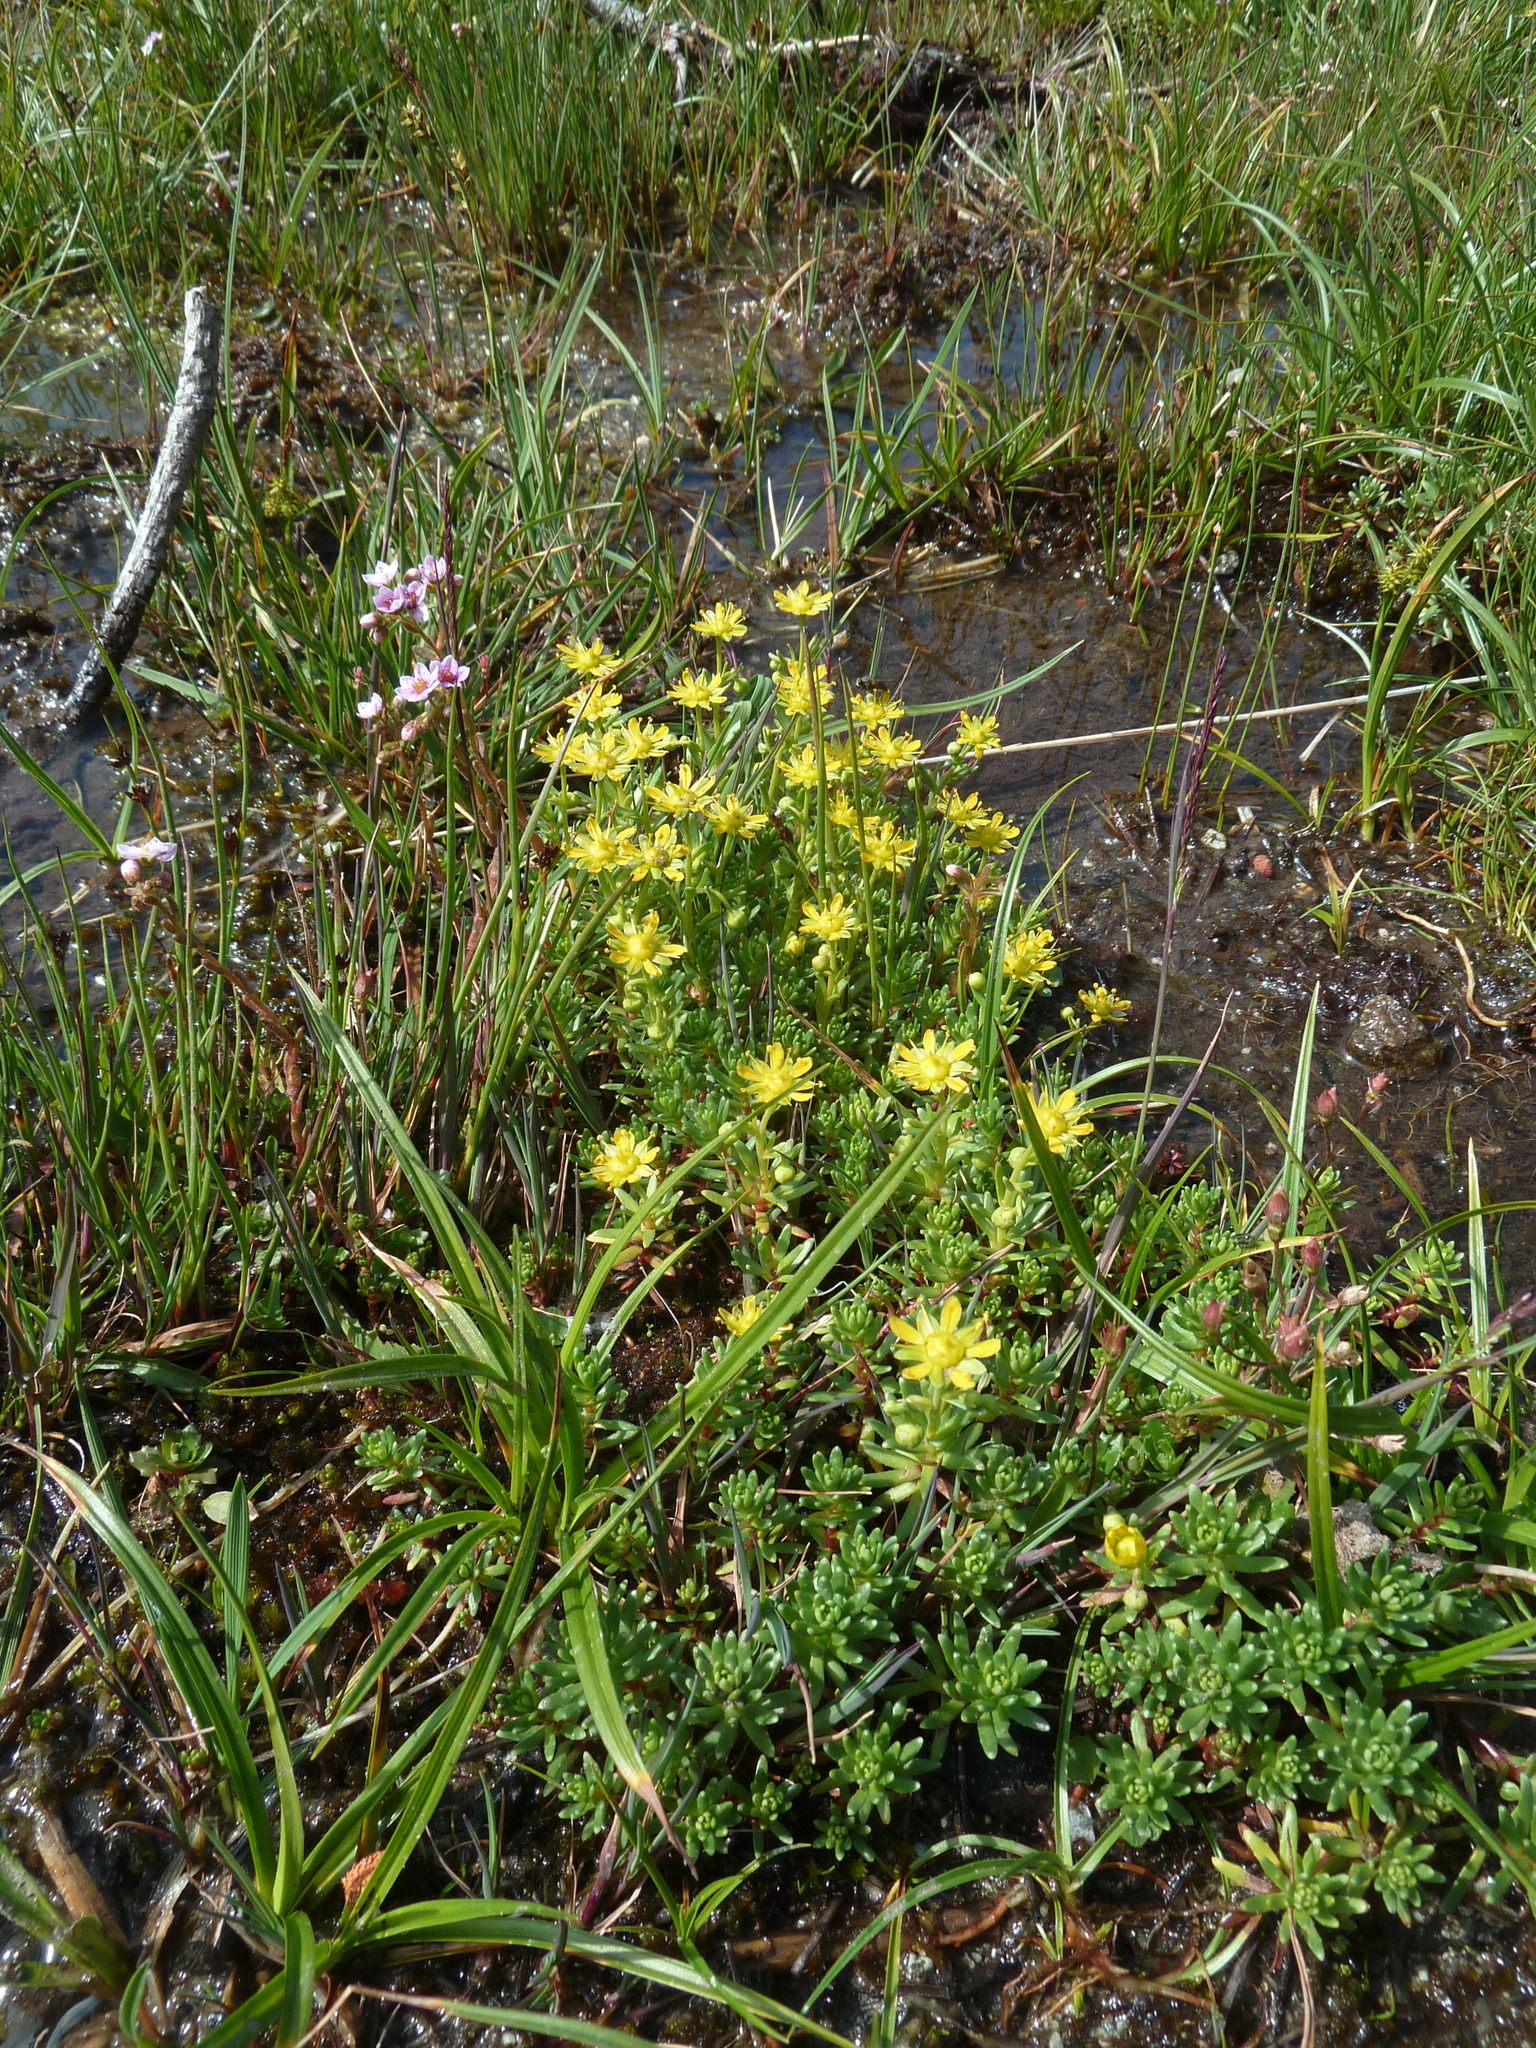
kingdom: Plantae
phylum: Tracheophyta
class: Magnoliopsida
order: Saxifragales
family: Saxifragaceae
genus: Saxifraga
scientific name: Saxifraga aizoides
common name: Yellow mountain saxifrage
